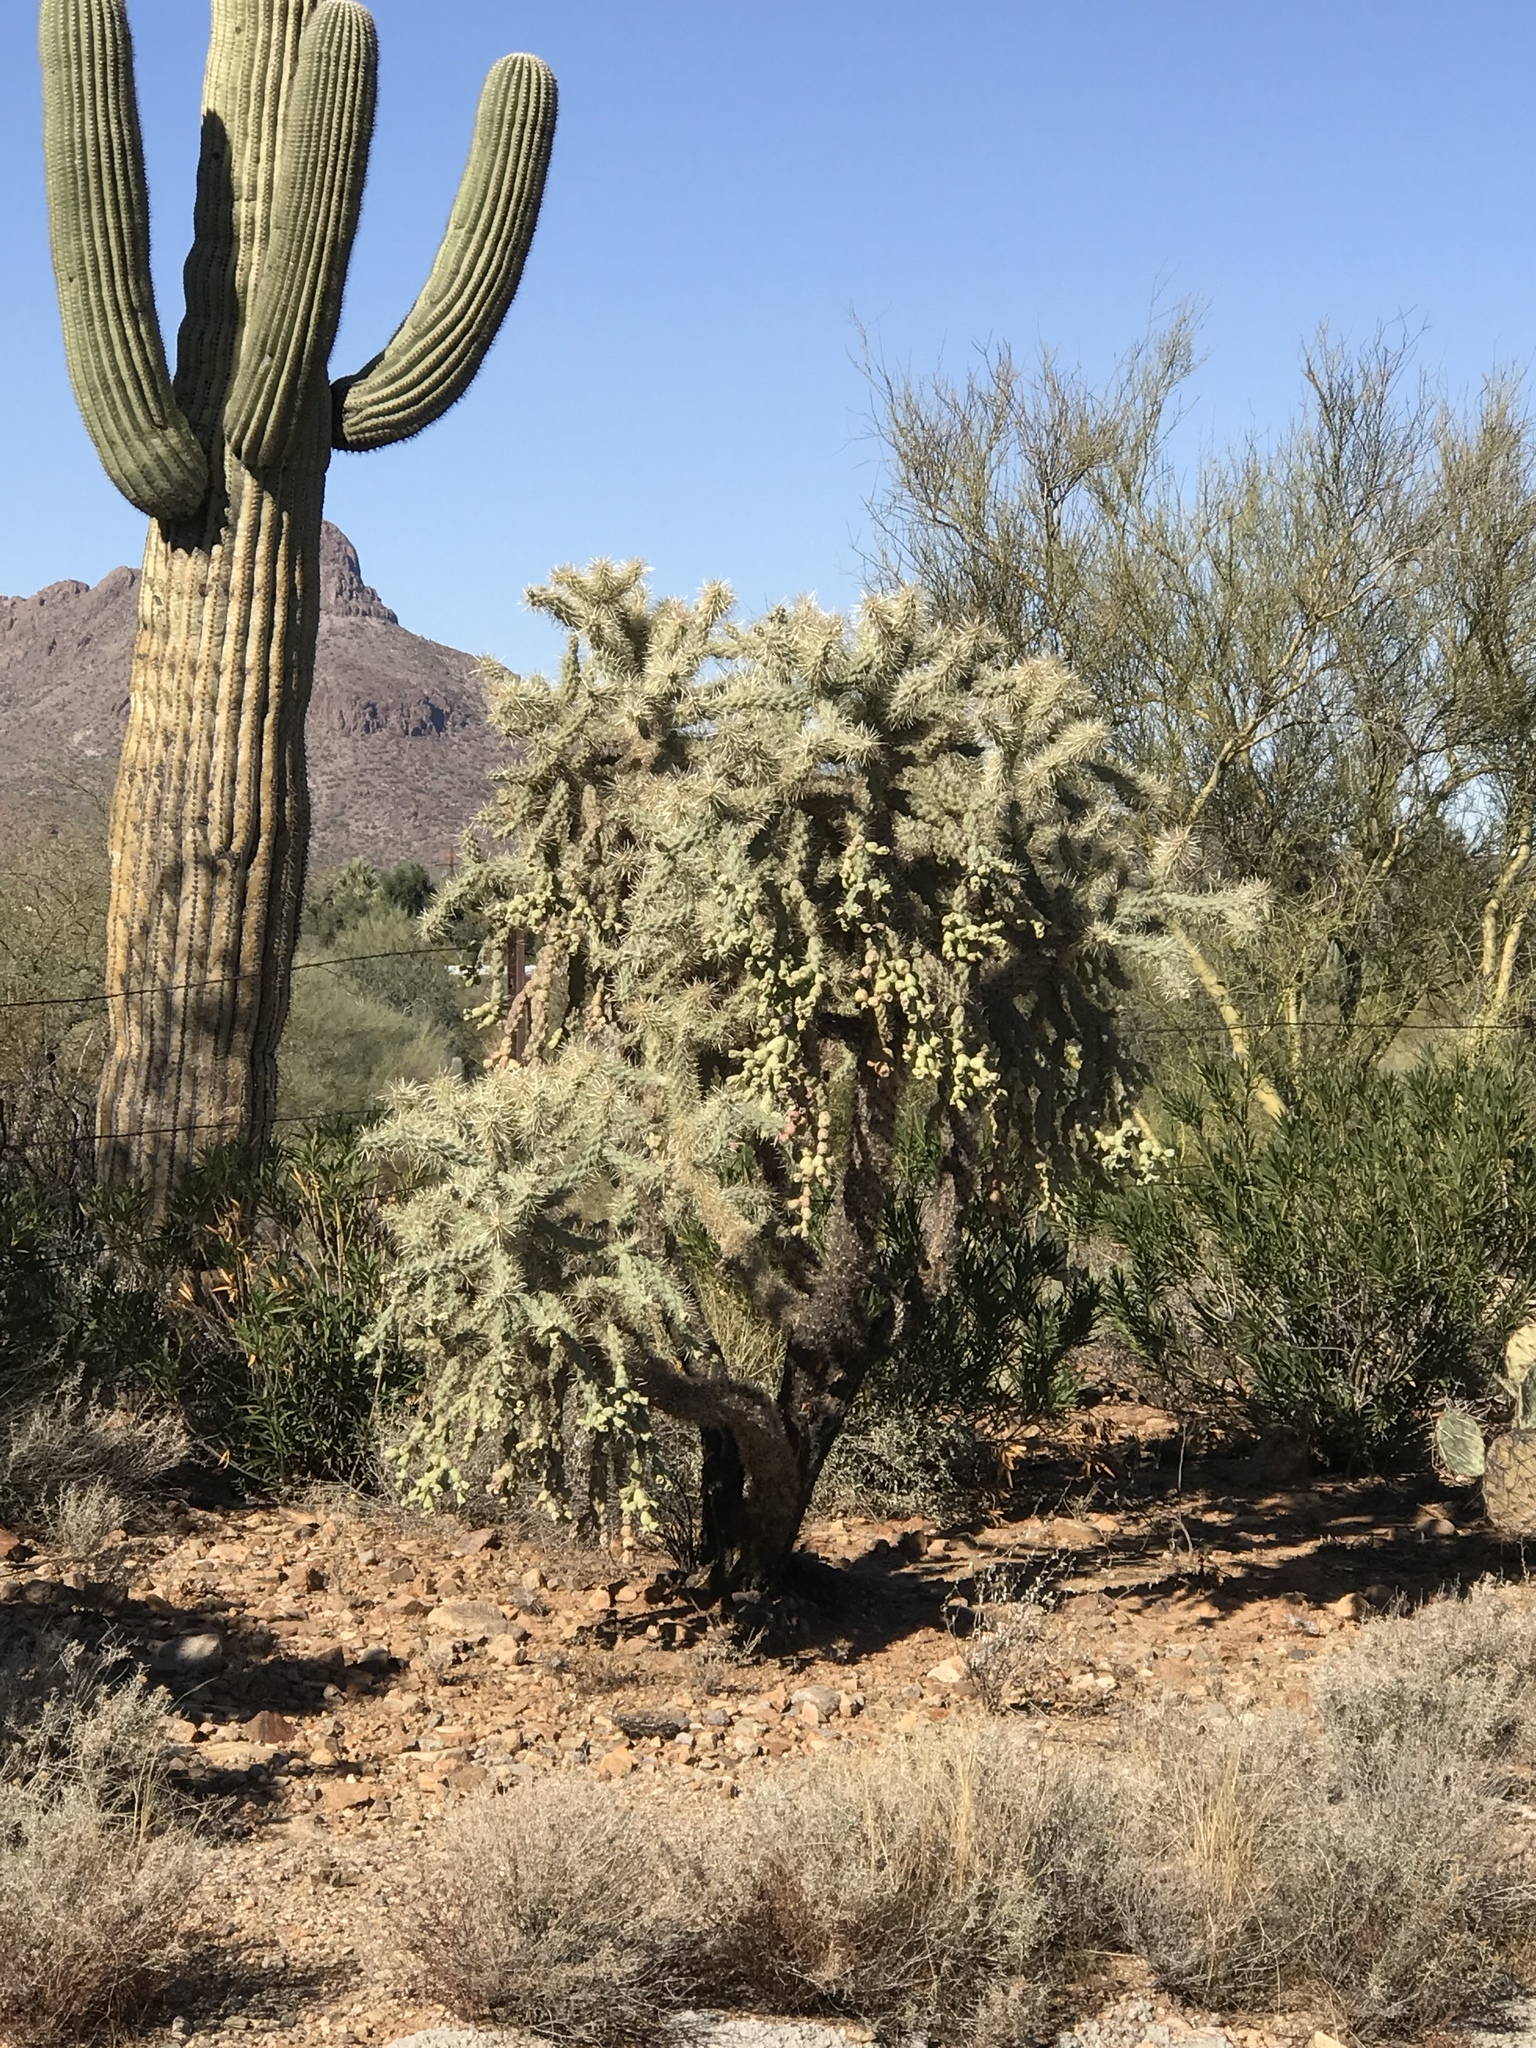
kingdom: Plantae
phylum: Tracheophyta
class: Magnoliopsida
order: Caryophyllales
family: Cactaceae
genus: Cylindropuntia
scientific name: Cylindropuntia fulgida
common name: Jumping cholla
